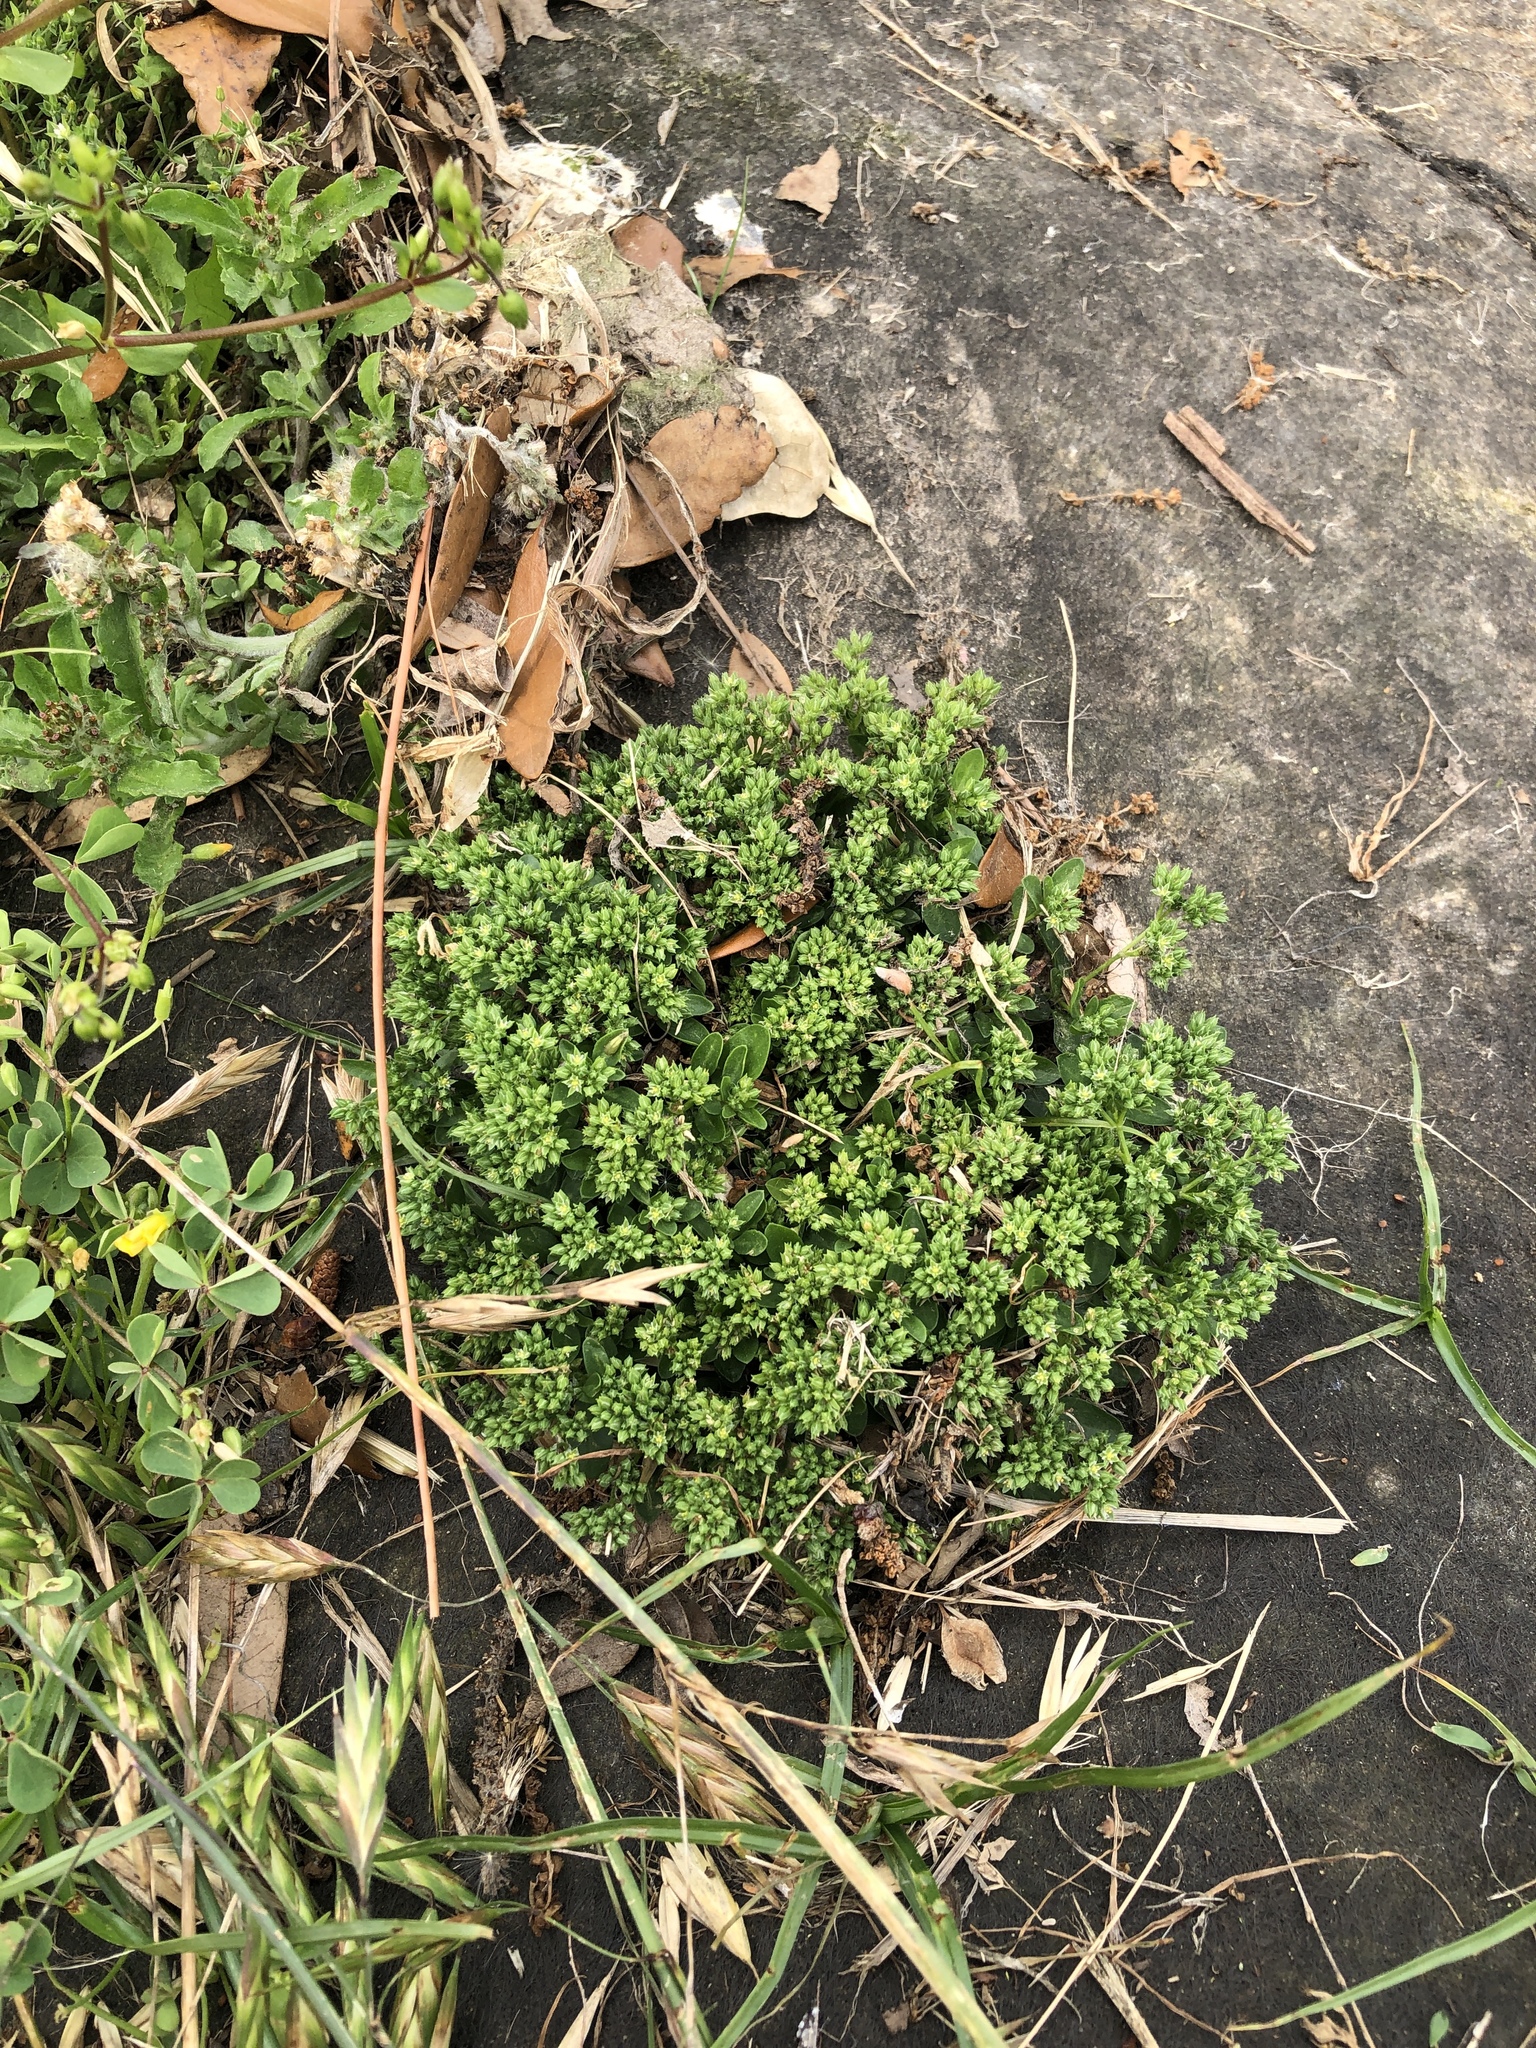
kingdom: Plantae
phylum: Tracheophyta
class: Magnoliopsida
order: Caryophyllales
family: Caryophyllaceae
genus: Polycarpon
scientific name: Polycarpon tetraphyllum
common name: Four-leaved all-seed
